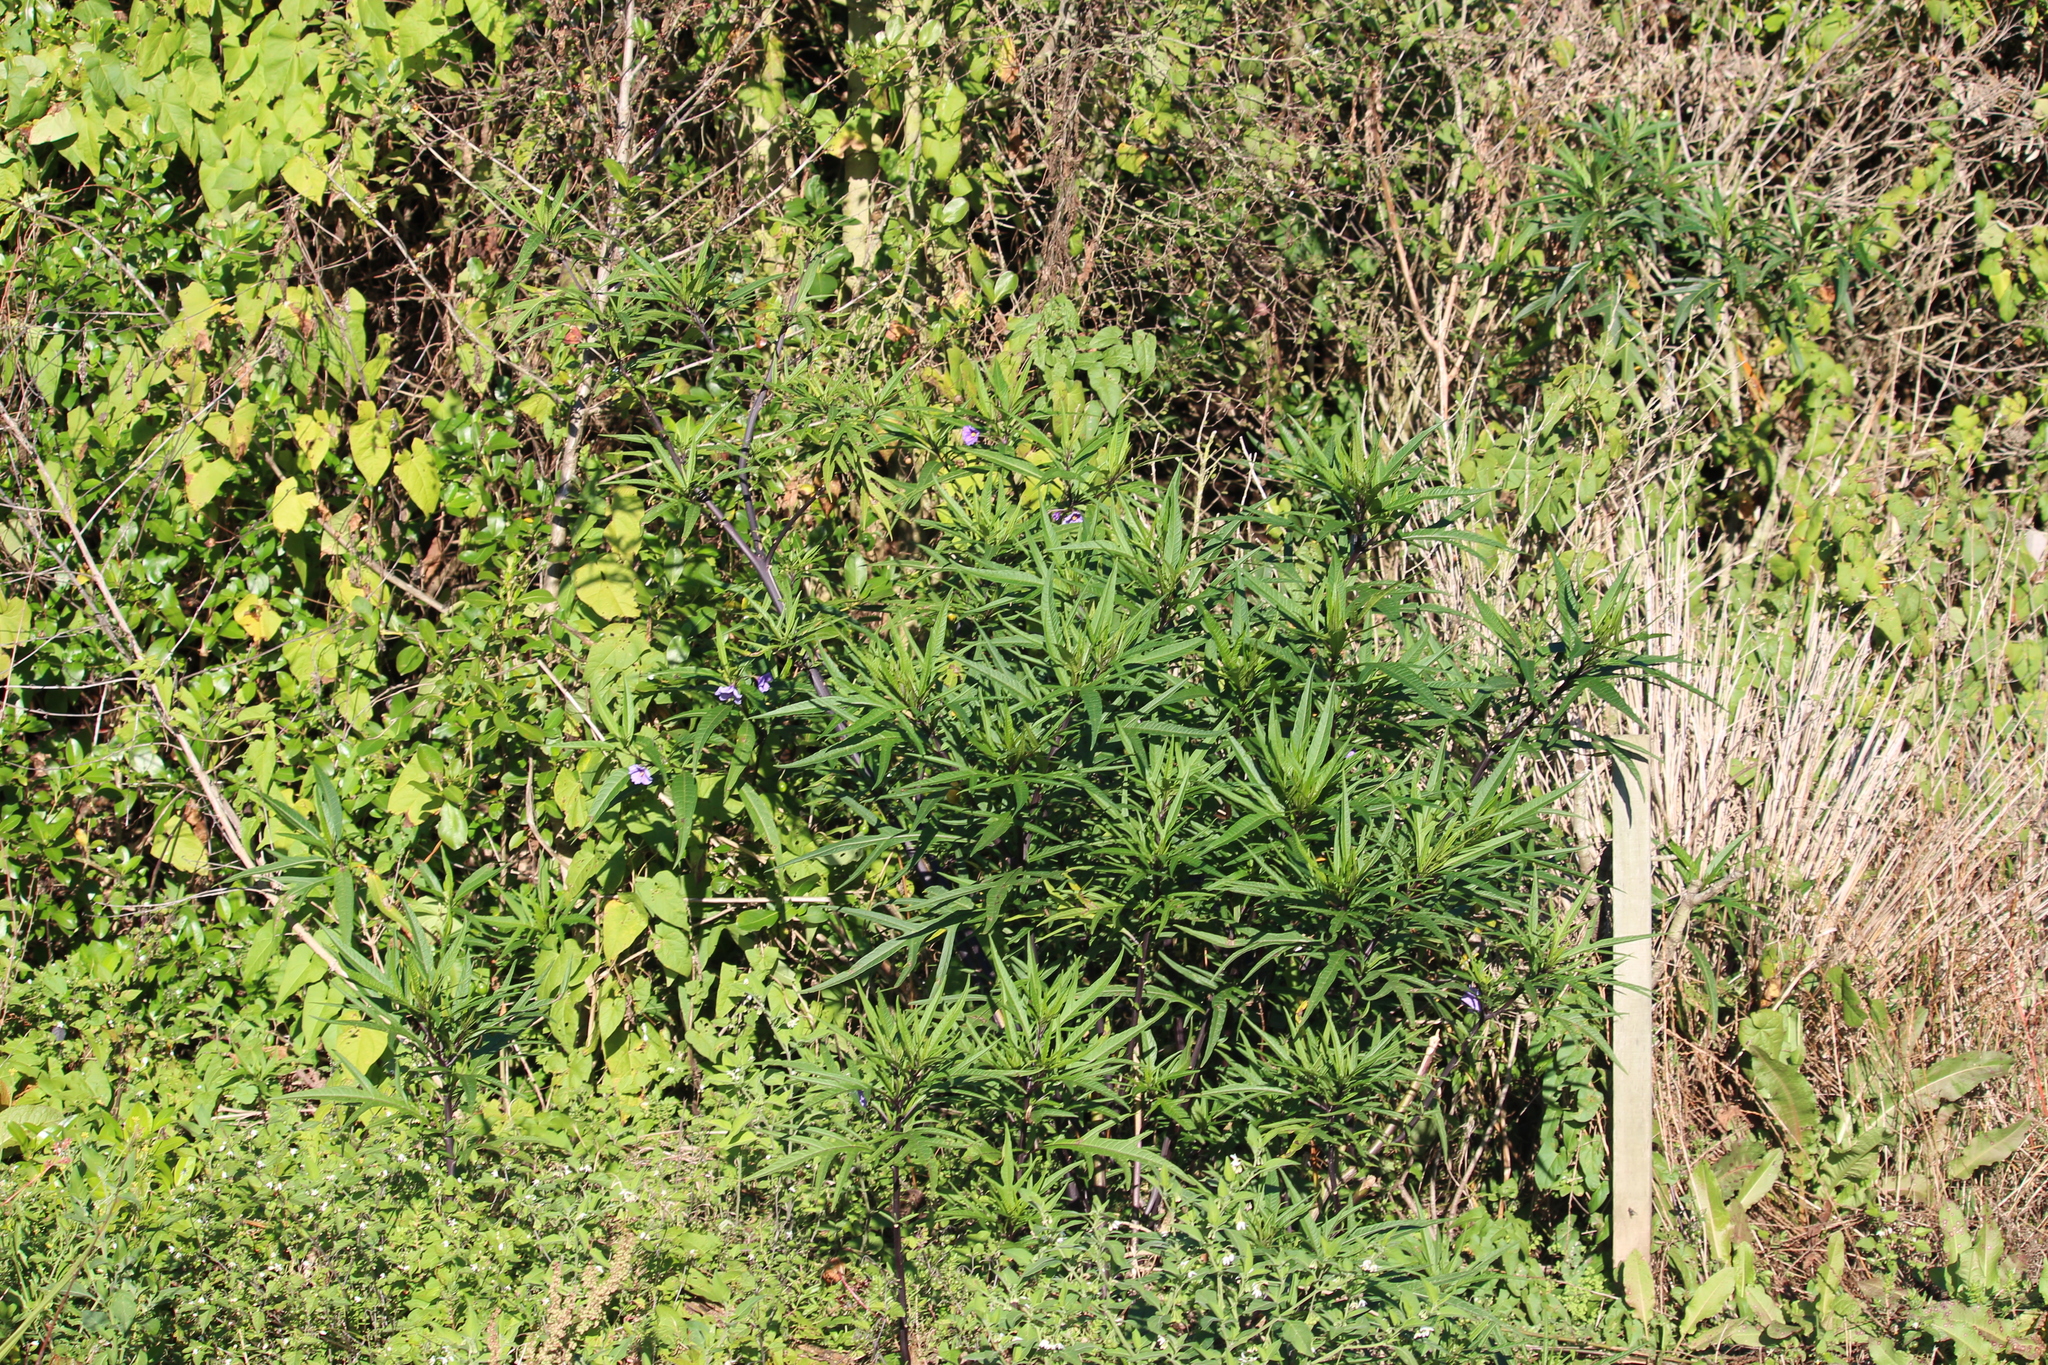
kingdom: Plantae
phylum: Tracheophyta
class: Magnoliopsida
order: Solanales
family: Solanaceae
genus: Solanum
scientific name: Solanum laciniatum
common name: Kangaroo-apple
